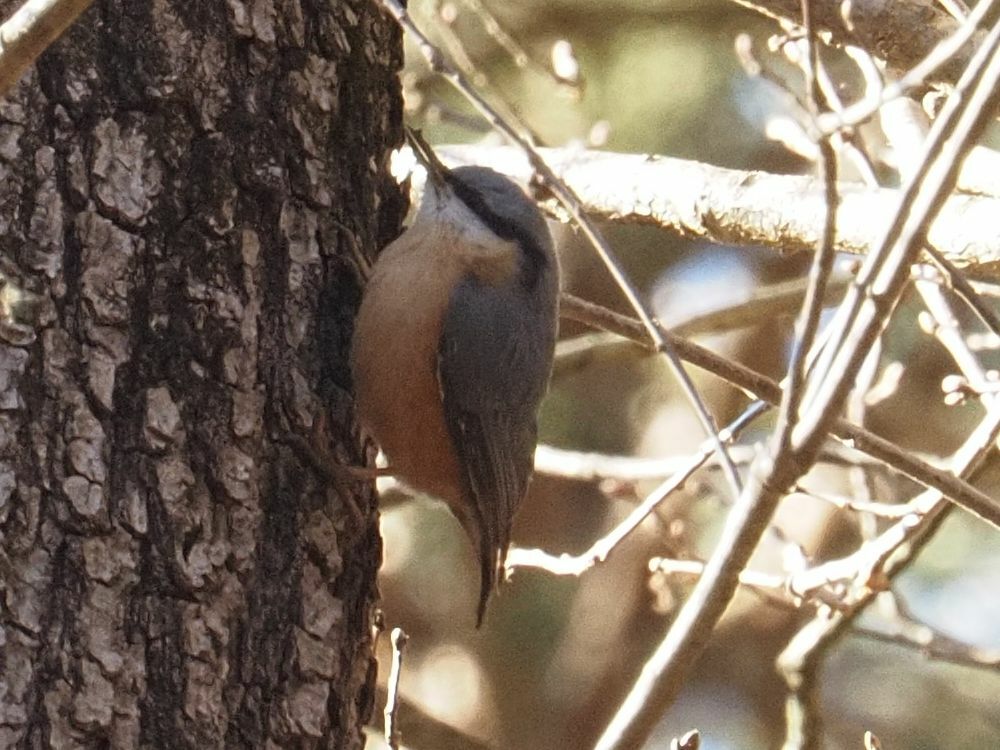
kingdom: Animalia
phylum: Chordata
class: Aves
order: Passeriformes
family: Sittidae
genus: Sitta
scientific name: Sitta europaea
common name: Eurasian nuthatch
